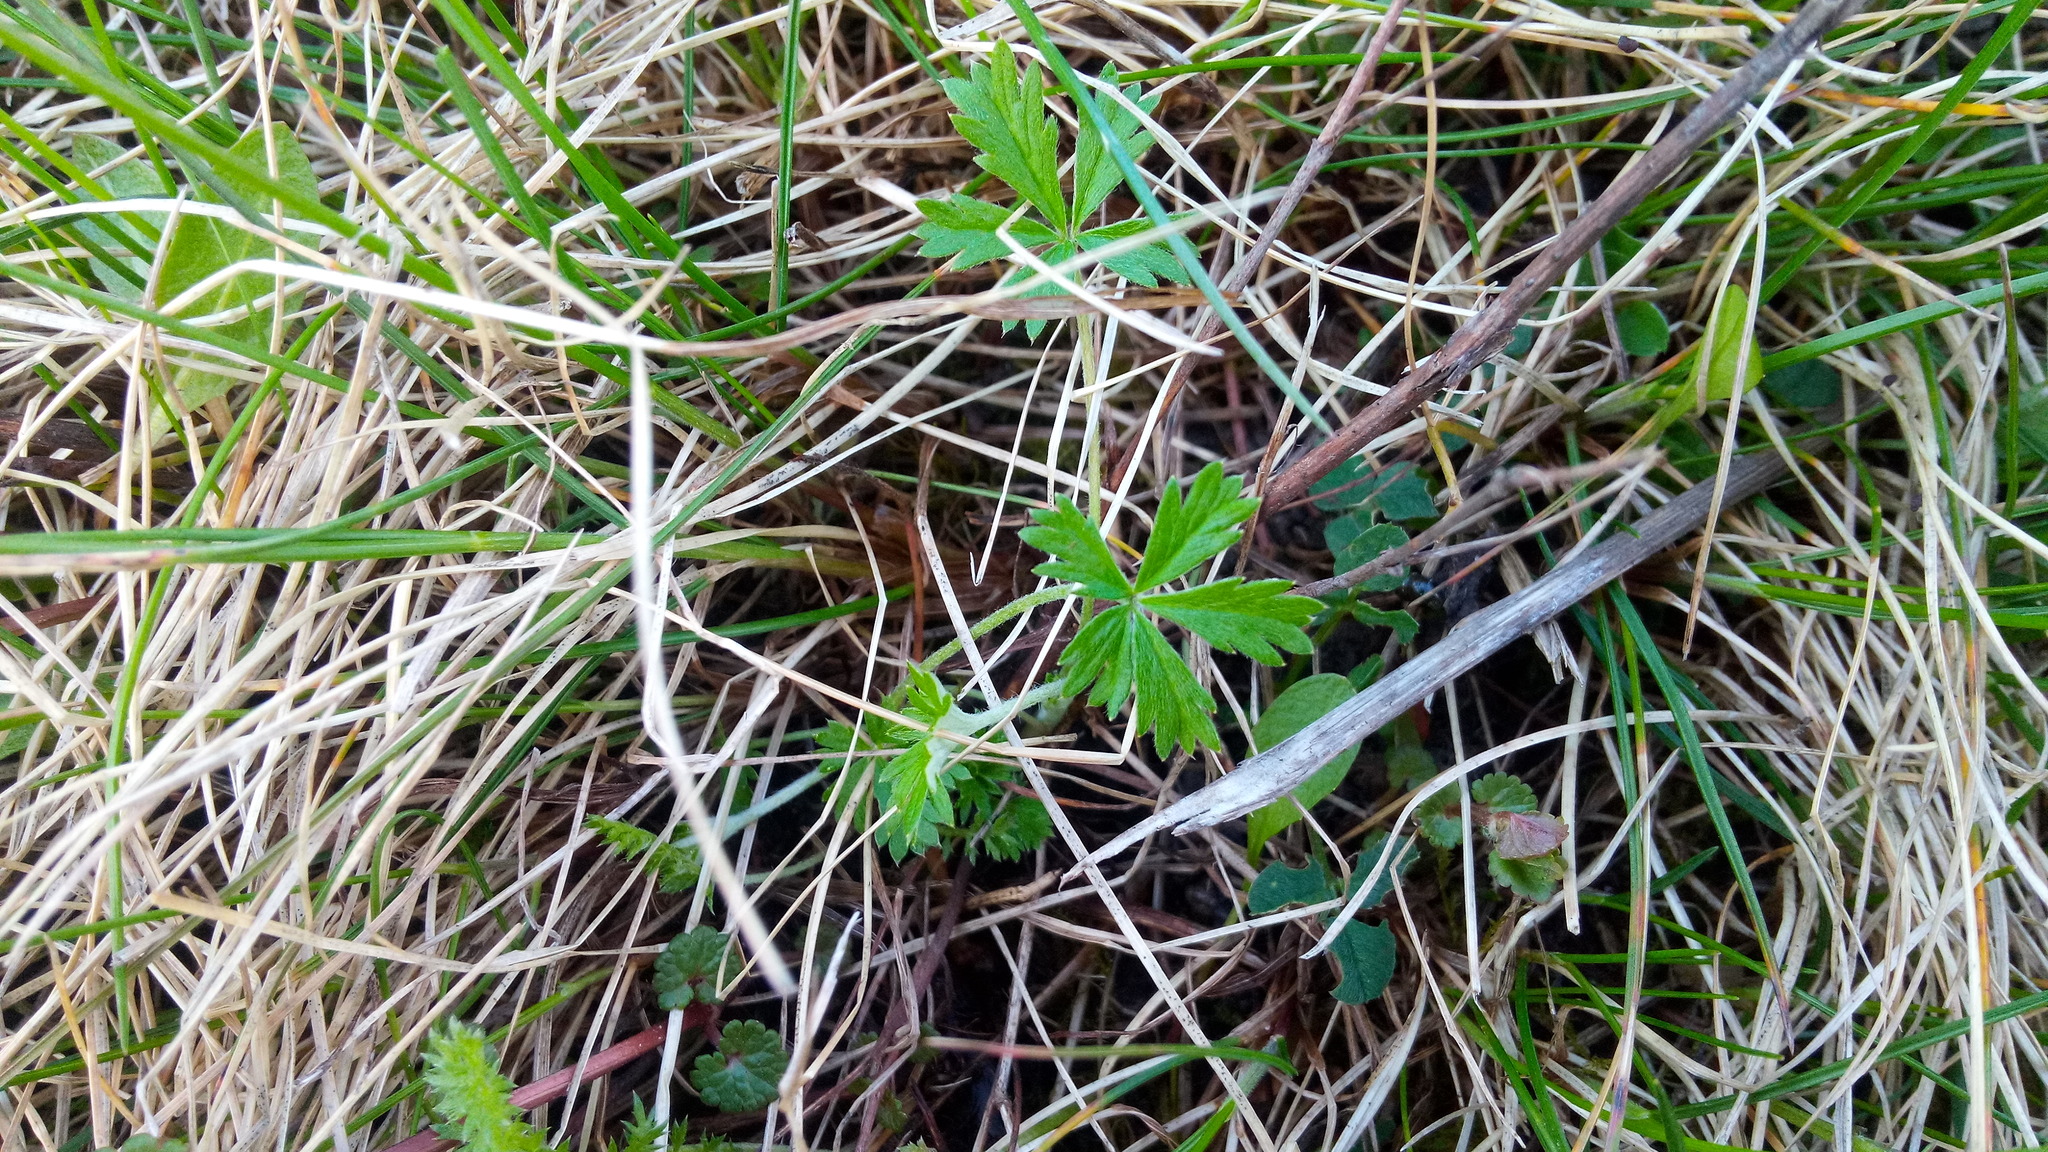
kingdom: Plantae
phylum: Tracheophyta
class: Magnoliopsida
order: Rosales
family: Rosaceae
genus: Potentilla
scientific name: Potentilla argentea
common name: Hoary cinquefoil
